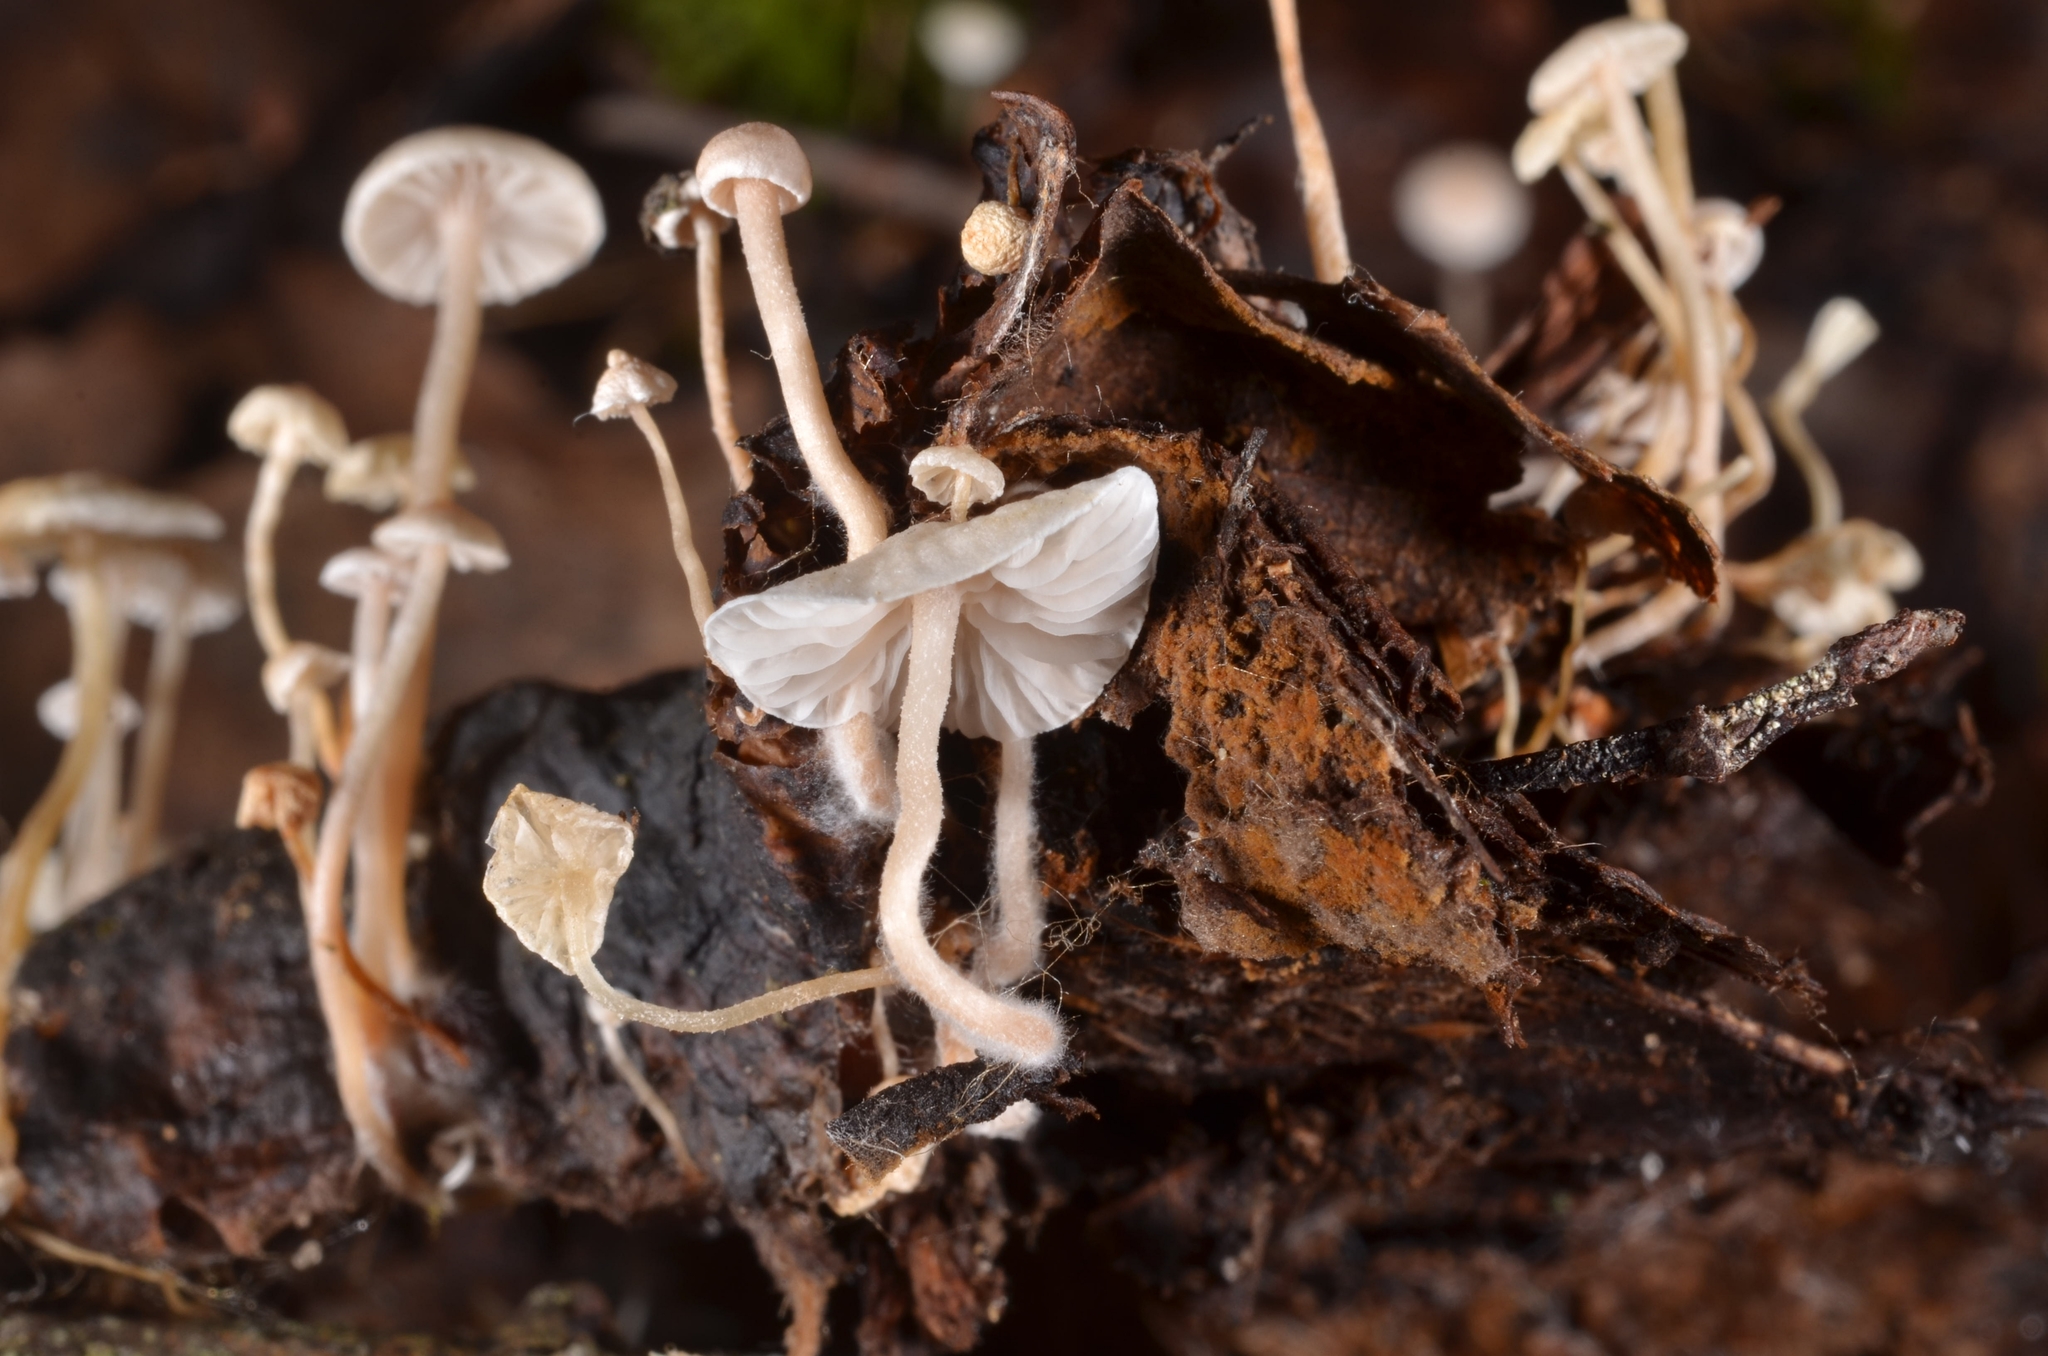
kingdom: Fungi
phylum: Basidiomycota
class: Agaricomycetes
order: Agaricales
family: Tricholomataceae
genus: Collybia
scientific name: Collybia cirrhata
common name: Piggyback shanklet
